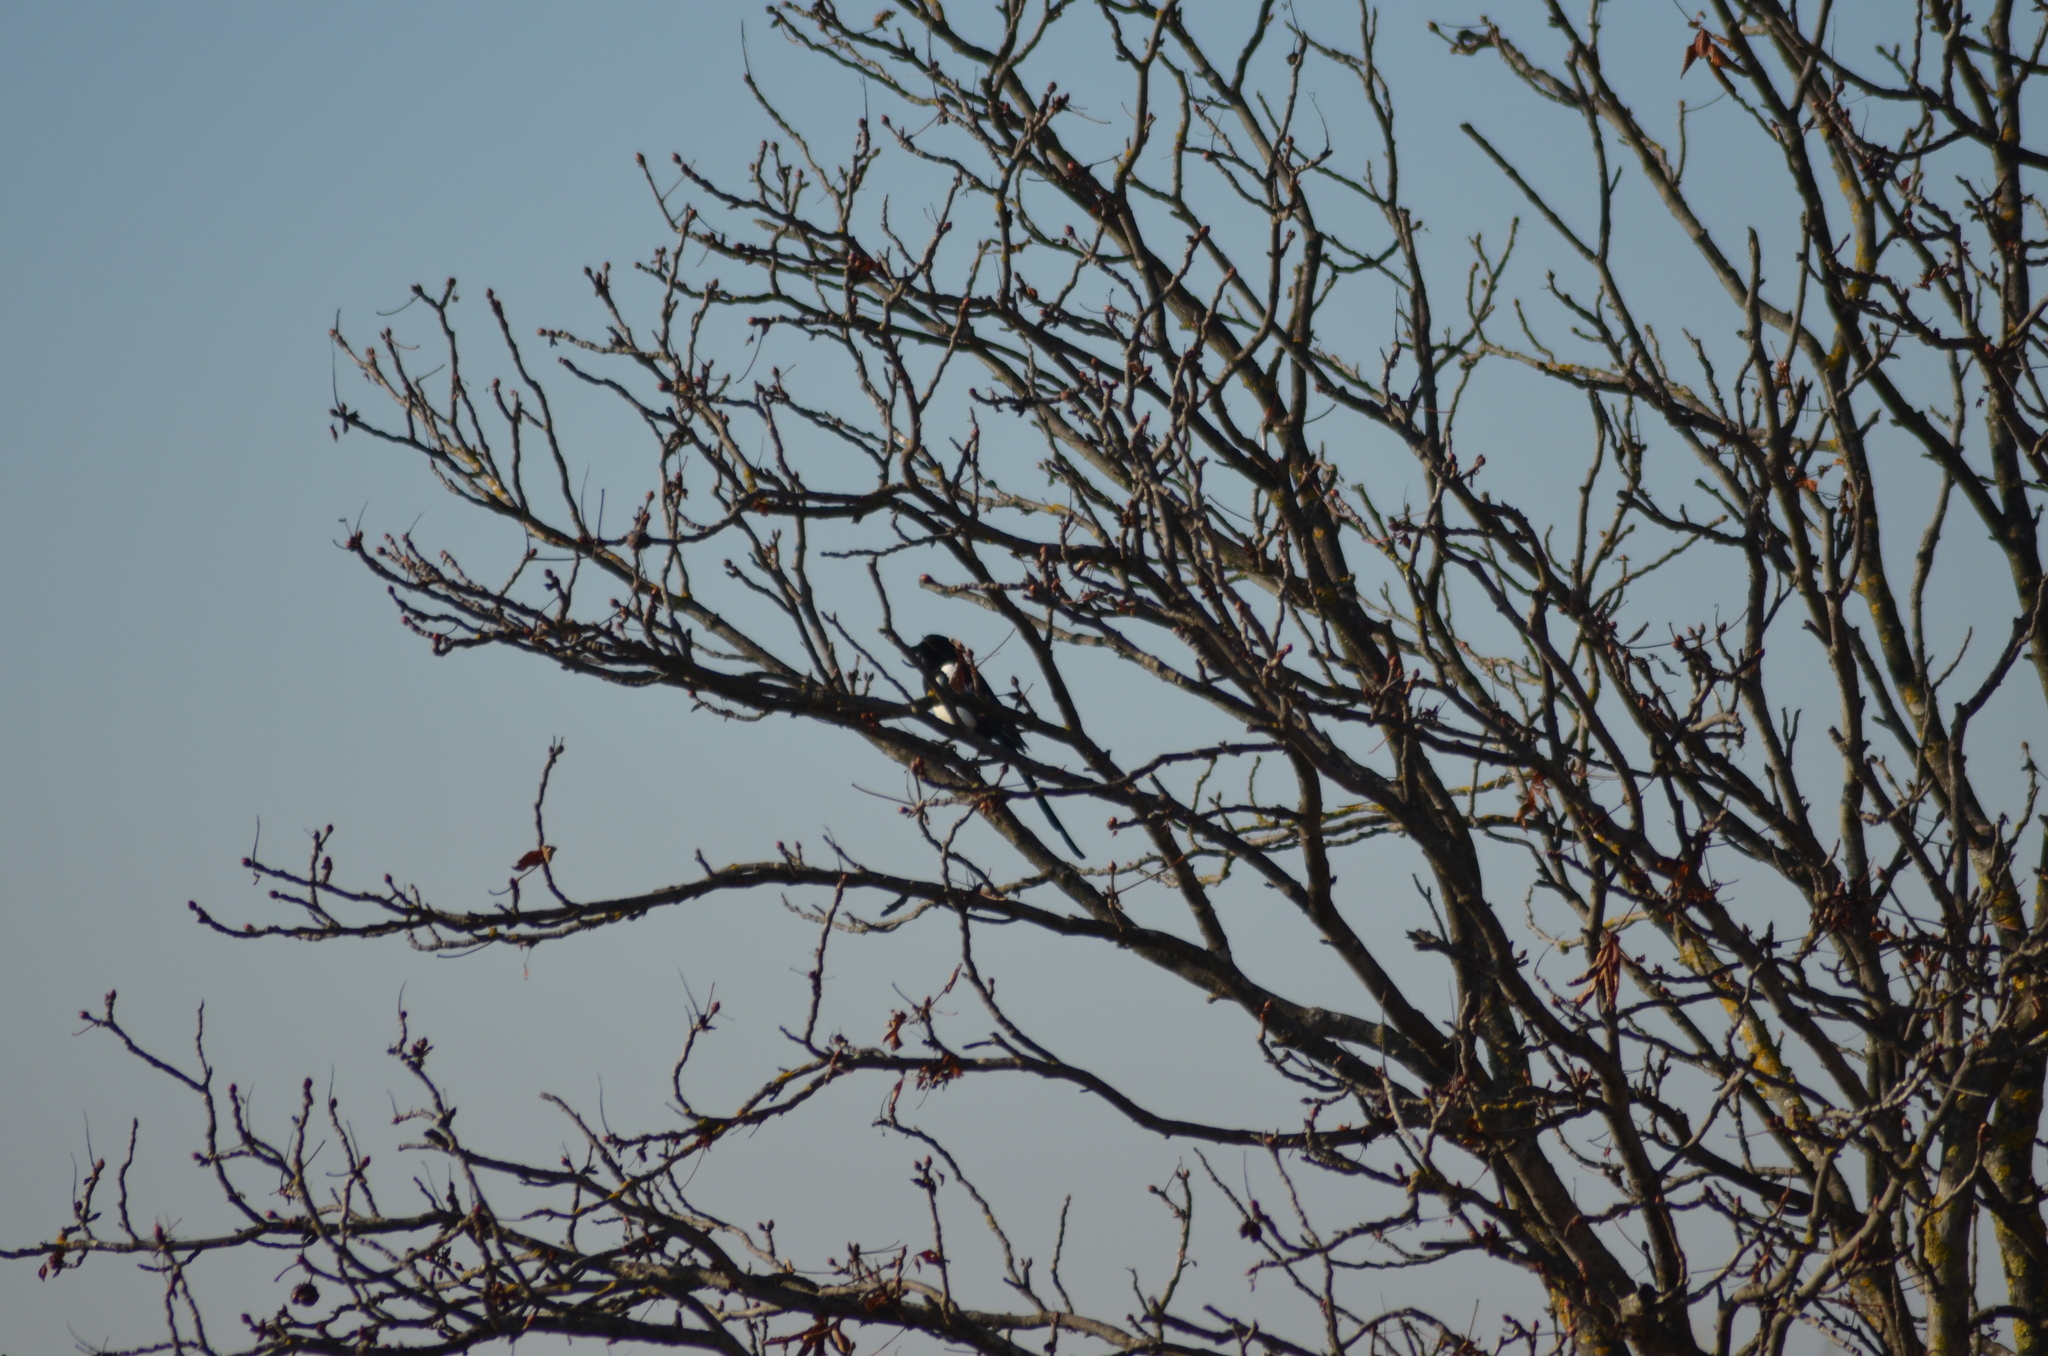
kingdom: Animalia
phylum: Chordata
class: Aves
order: Passeriformes
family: Corvidae
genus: Pica
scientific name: Pica pica
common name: Eurasian magpie
